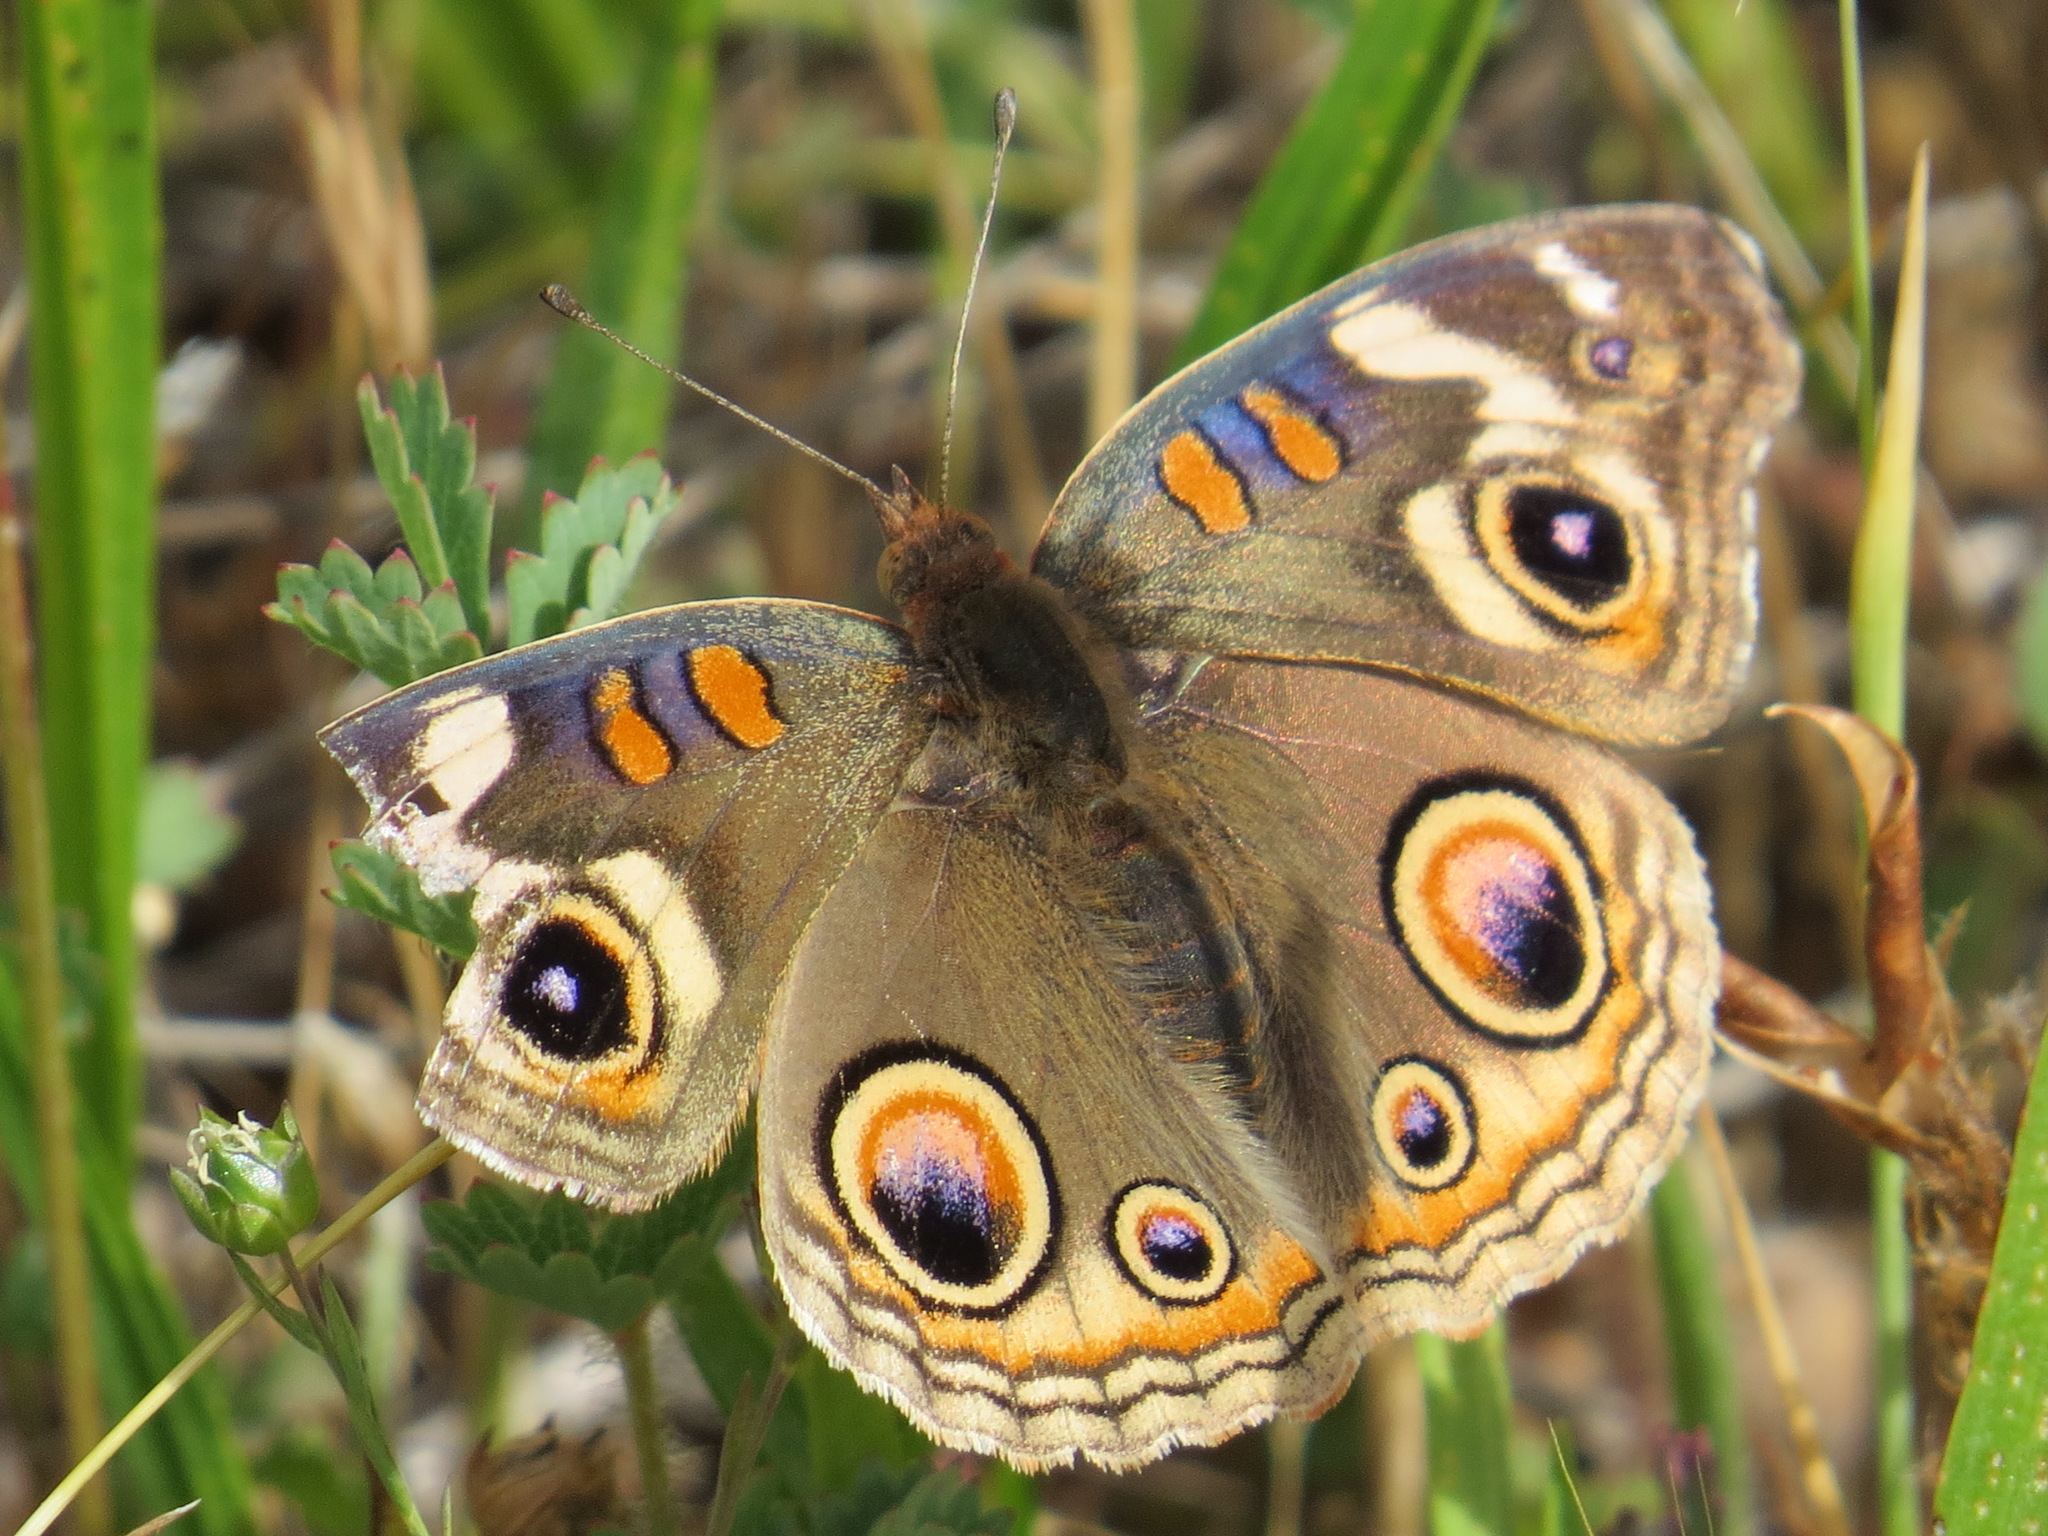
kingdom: Animalia
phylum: Arthropoda
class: Insecta
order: Lepidoptera
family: Nymphalidae
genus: Junonia
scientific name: Junonia grisea
